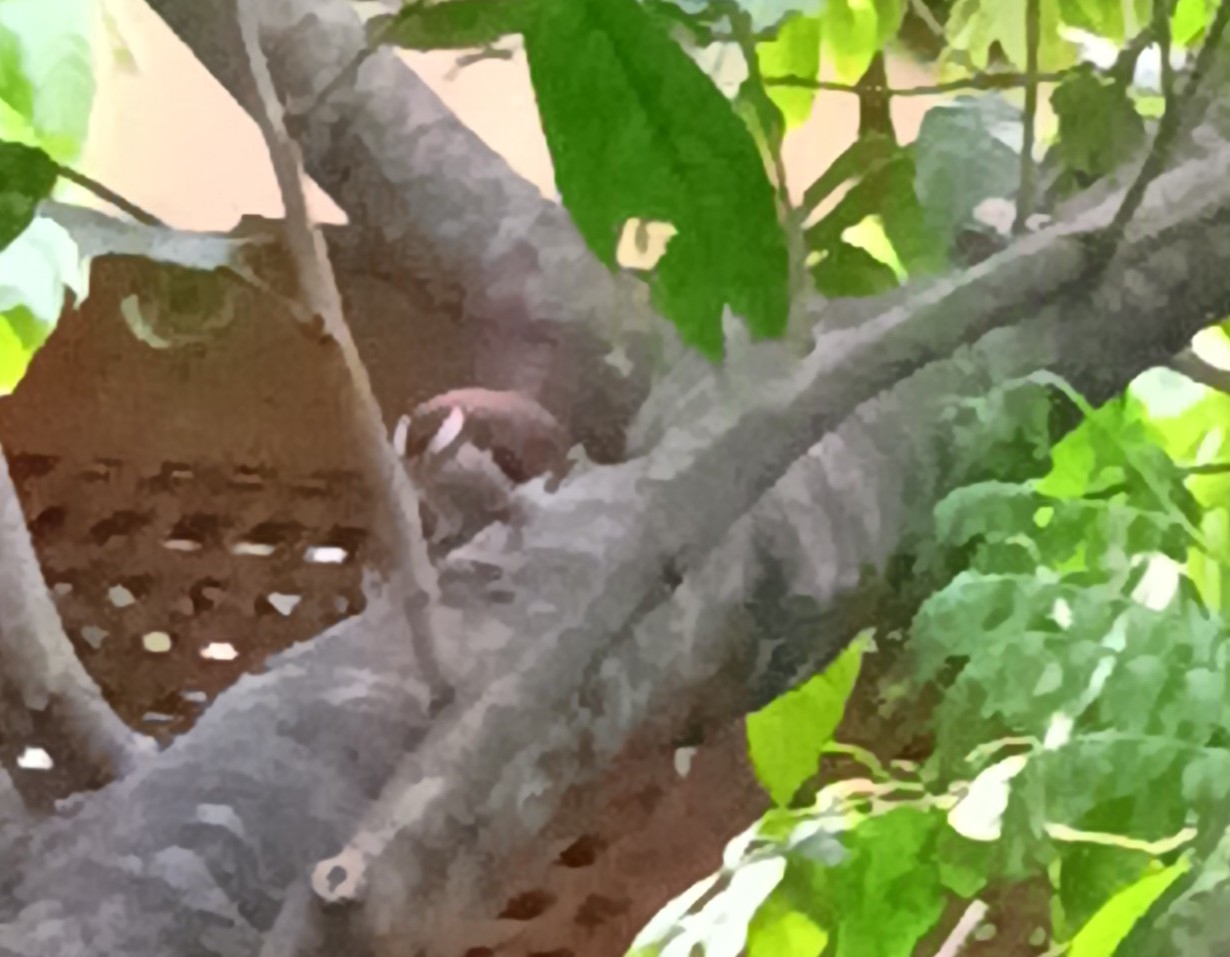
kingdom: Animalia
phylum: Chordata
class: Aves
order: Passeriformes
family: Troglodytidae
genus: Campylorhynchus
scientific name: Campylorhynchus rufinucha
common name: Rufous-naped wren
